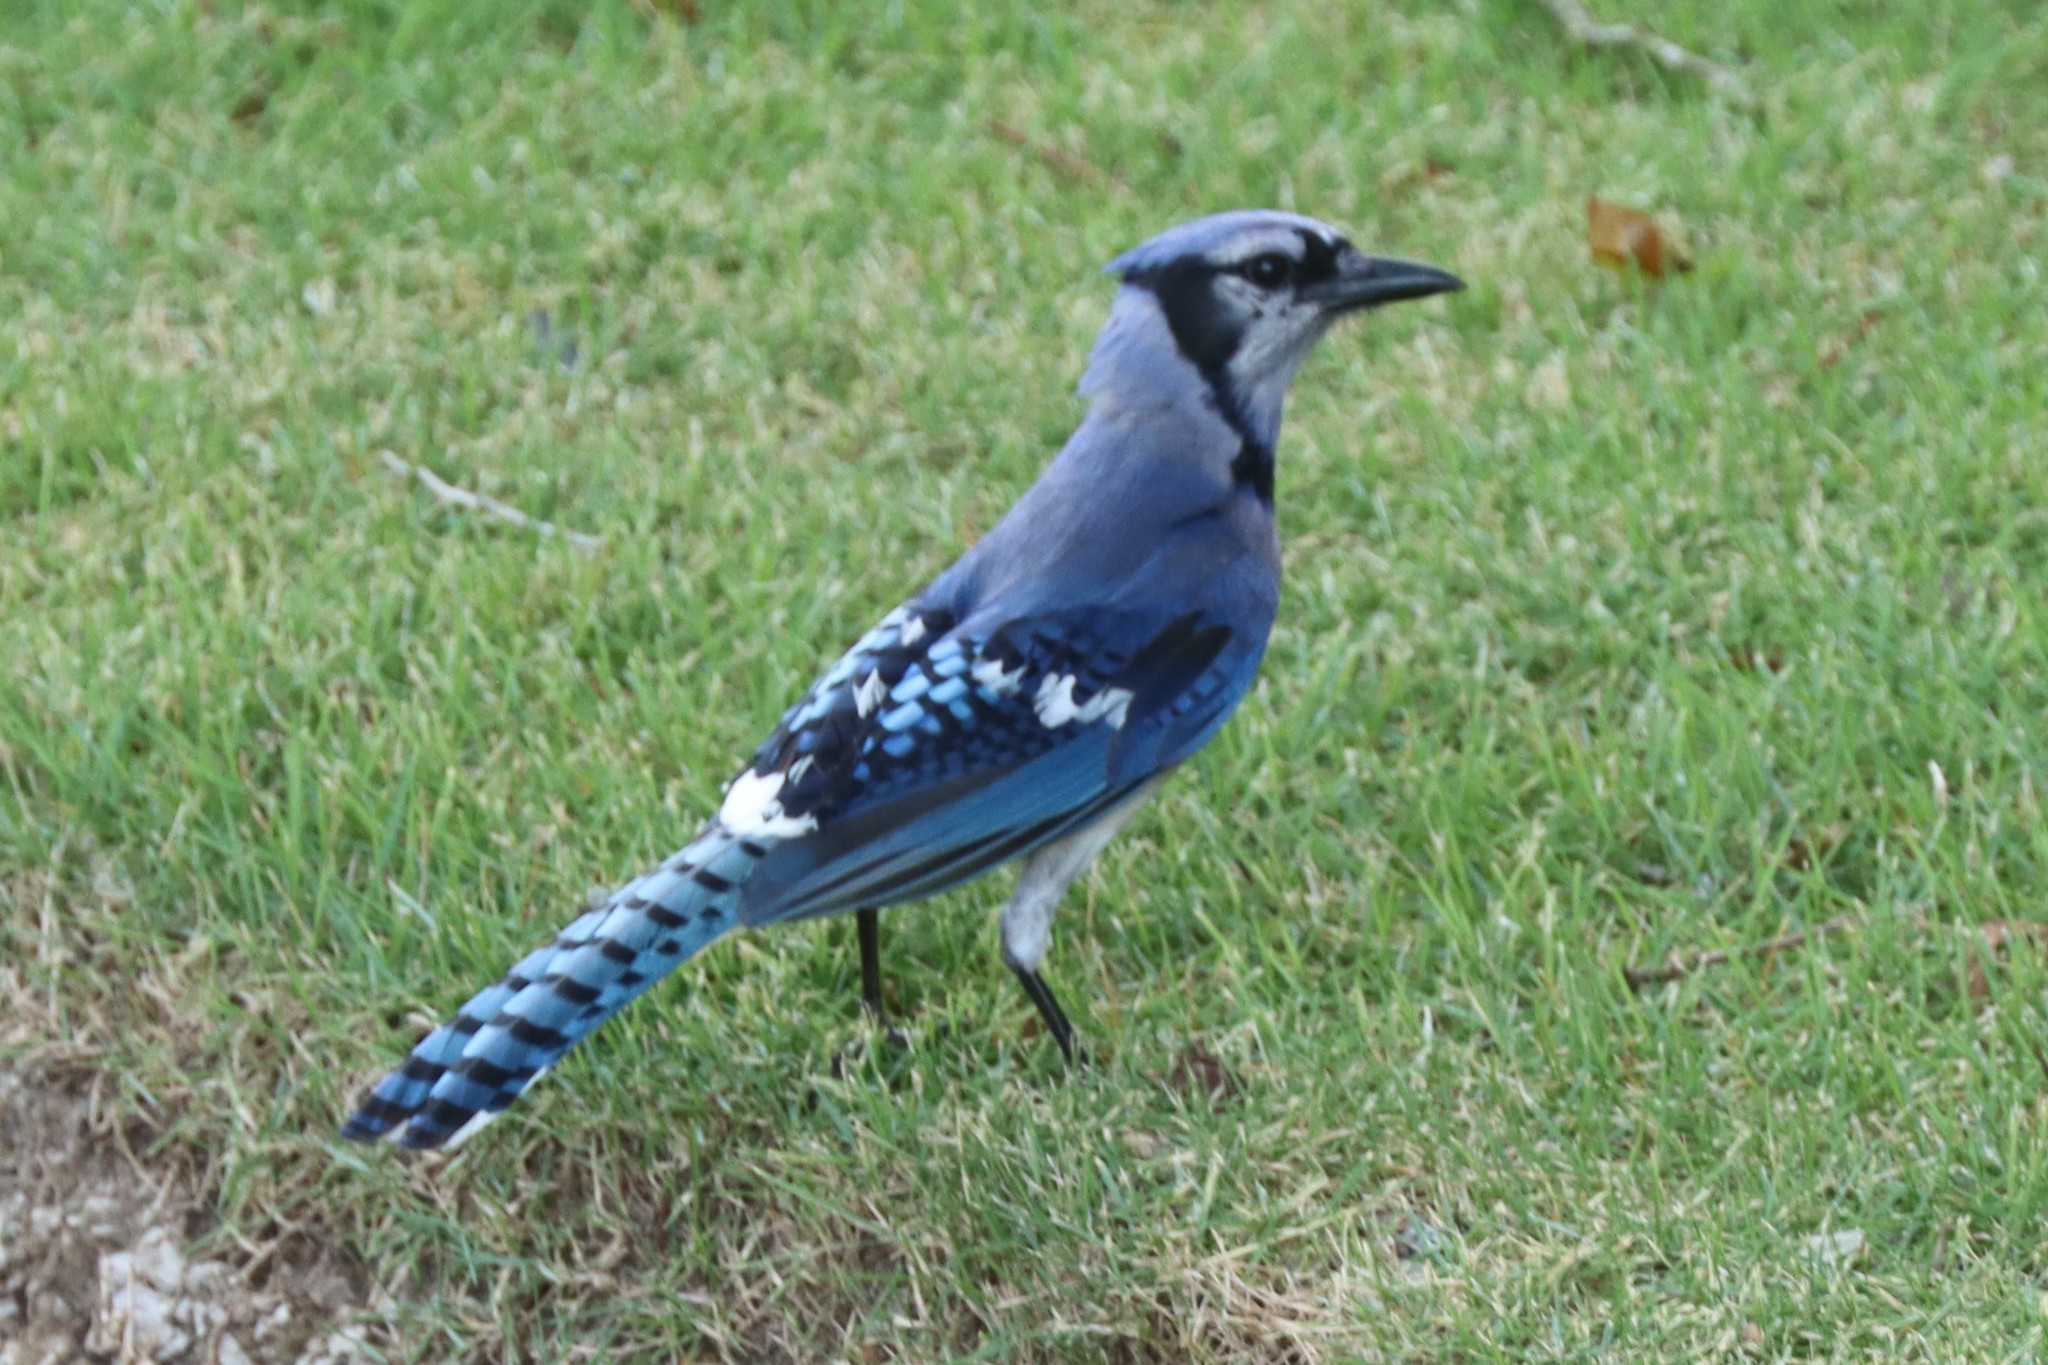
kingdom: Animalia
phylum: Chordata
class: Aves
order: Passeriformes
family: Corvidae
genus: Cyanocitta
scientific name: Cyanocitta cristata
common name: Blue jay
